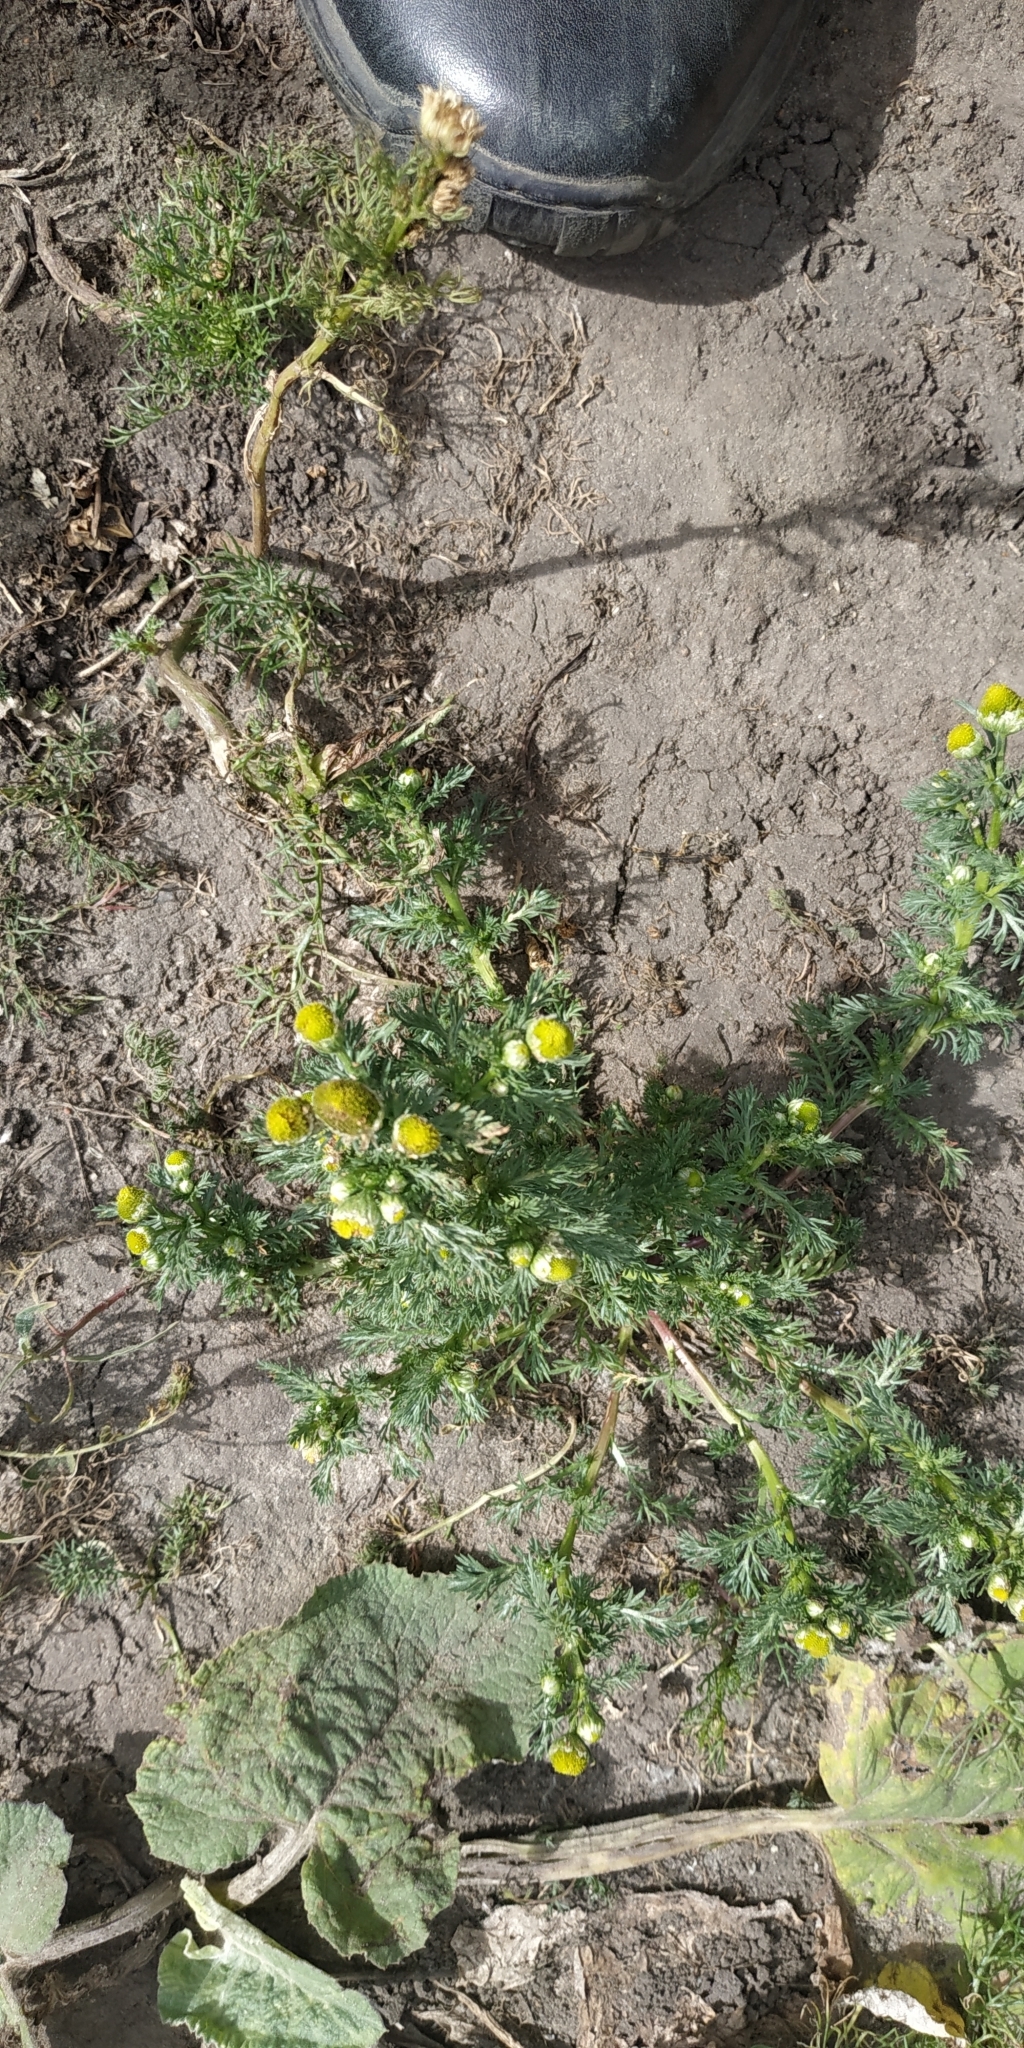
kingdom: Plantae
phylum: Tracheophyta
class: Magnoliopsida
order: Asterales
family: Asteraceae
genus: Matricaria
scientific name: Matricaria discoidea
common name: Disc mayweed
